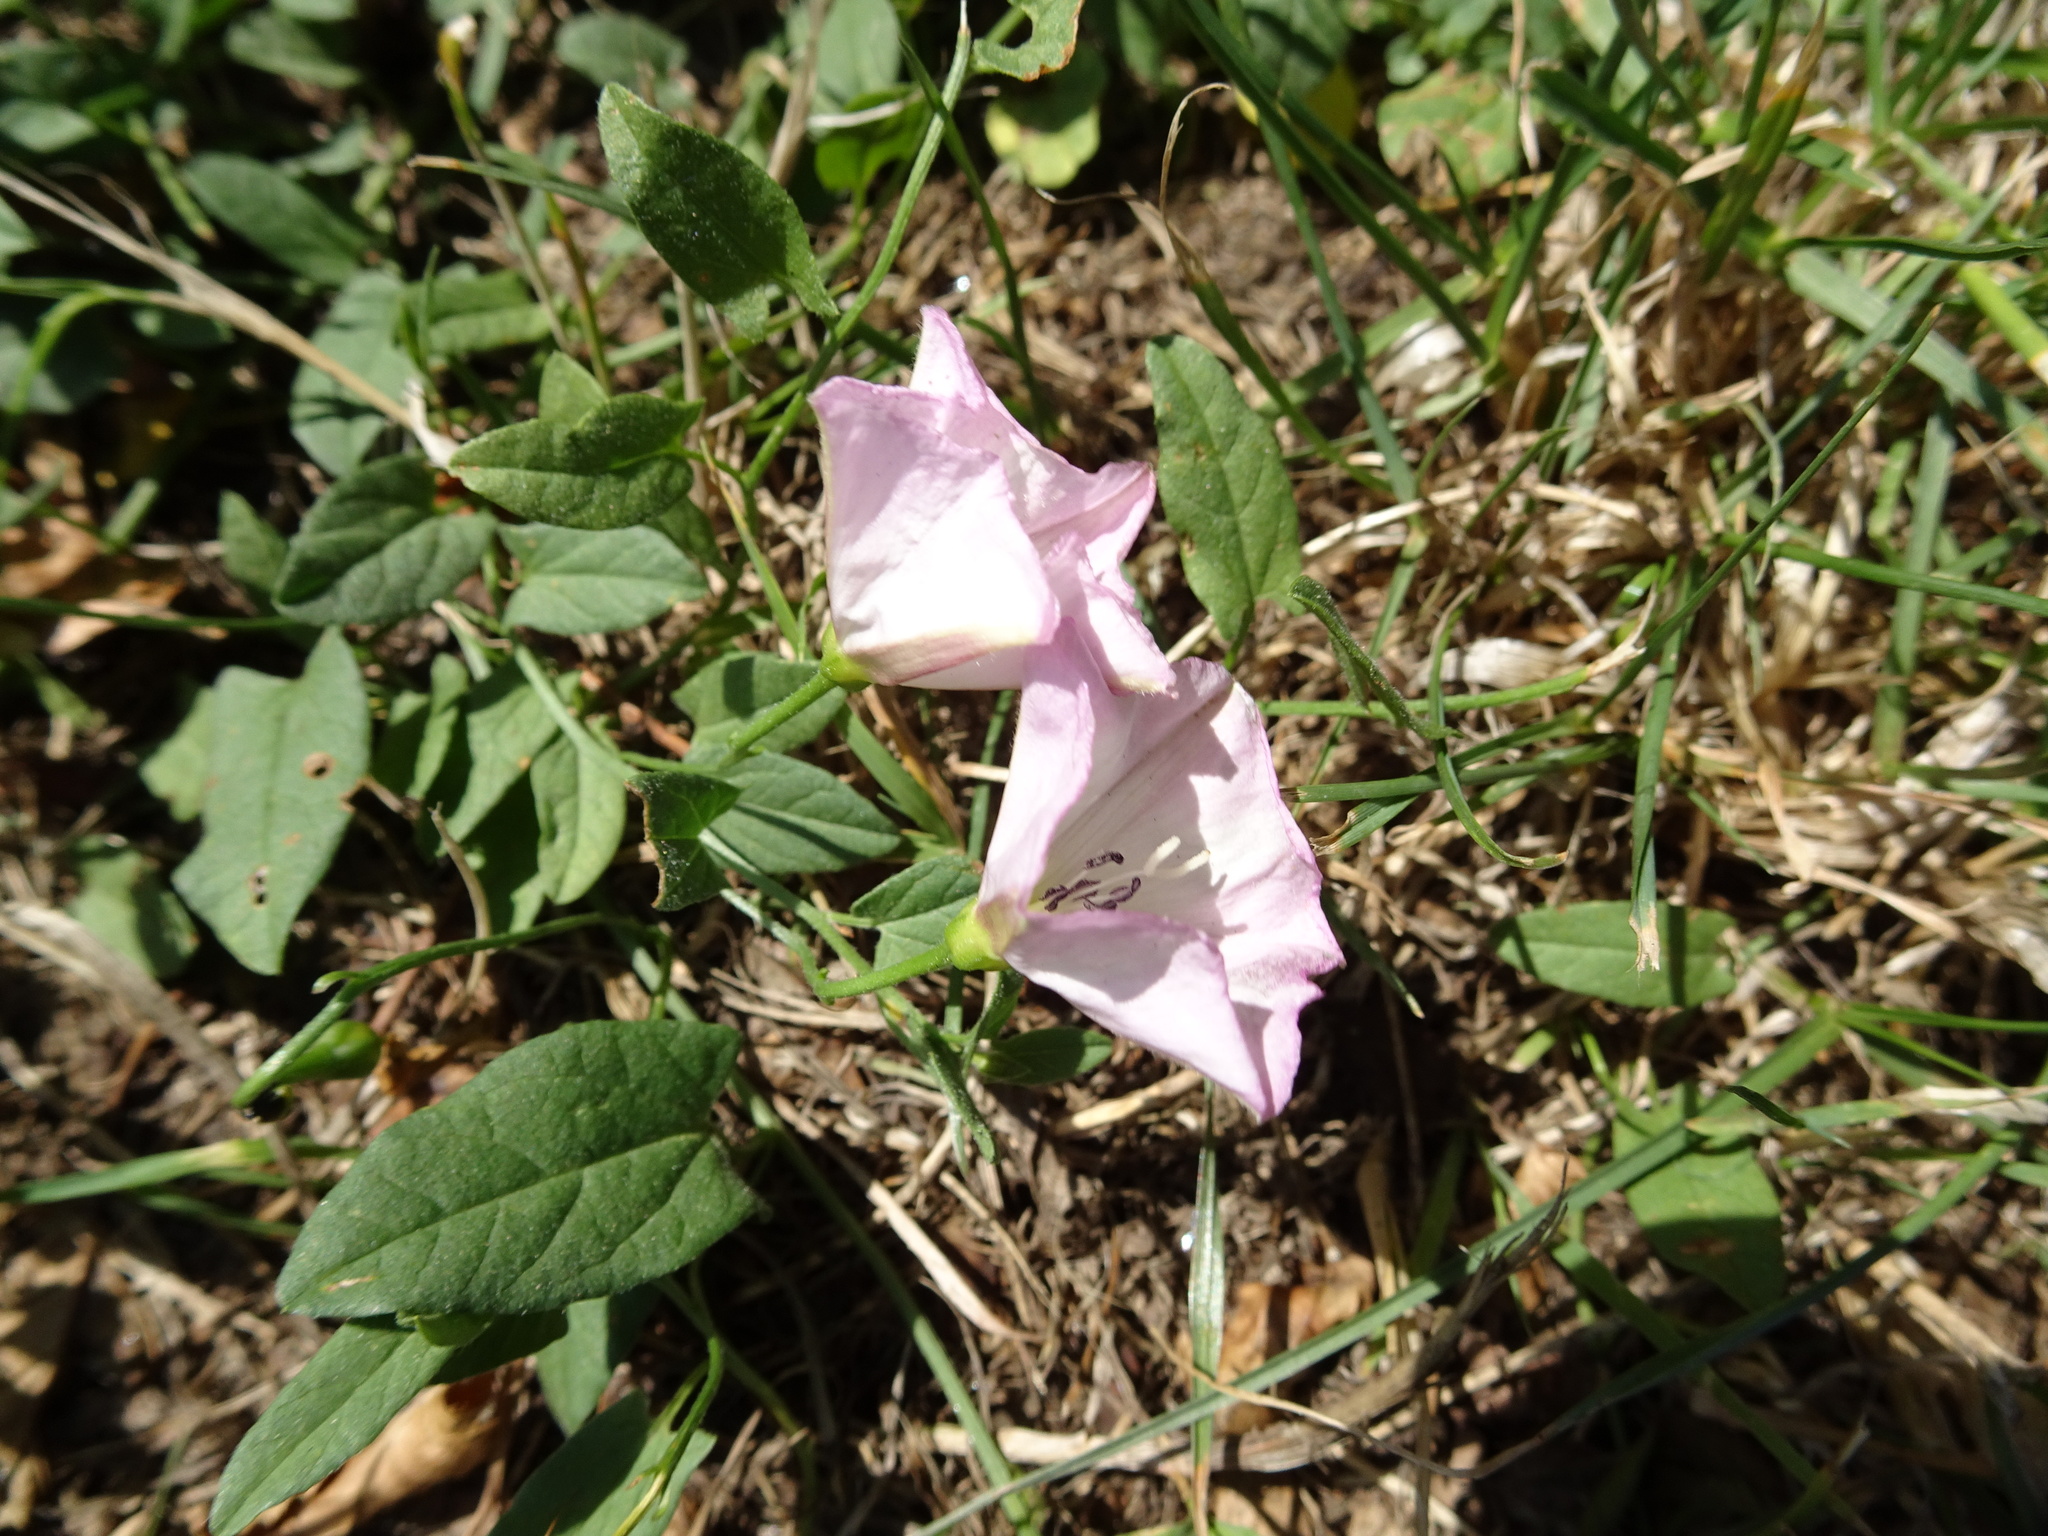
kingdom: Plantae
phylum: Tracheophyta
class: Magnoliopsida
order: Solanales
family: Convolvulaceae
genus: Convolvulus
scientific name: Convolvulus arvensis
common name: Field bindweed
